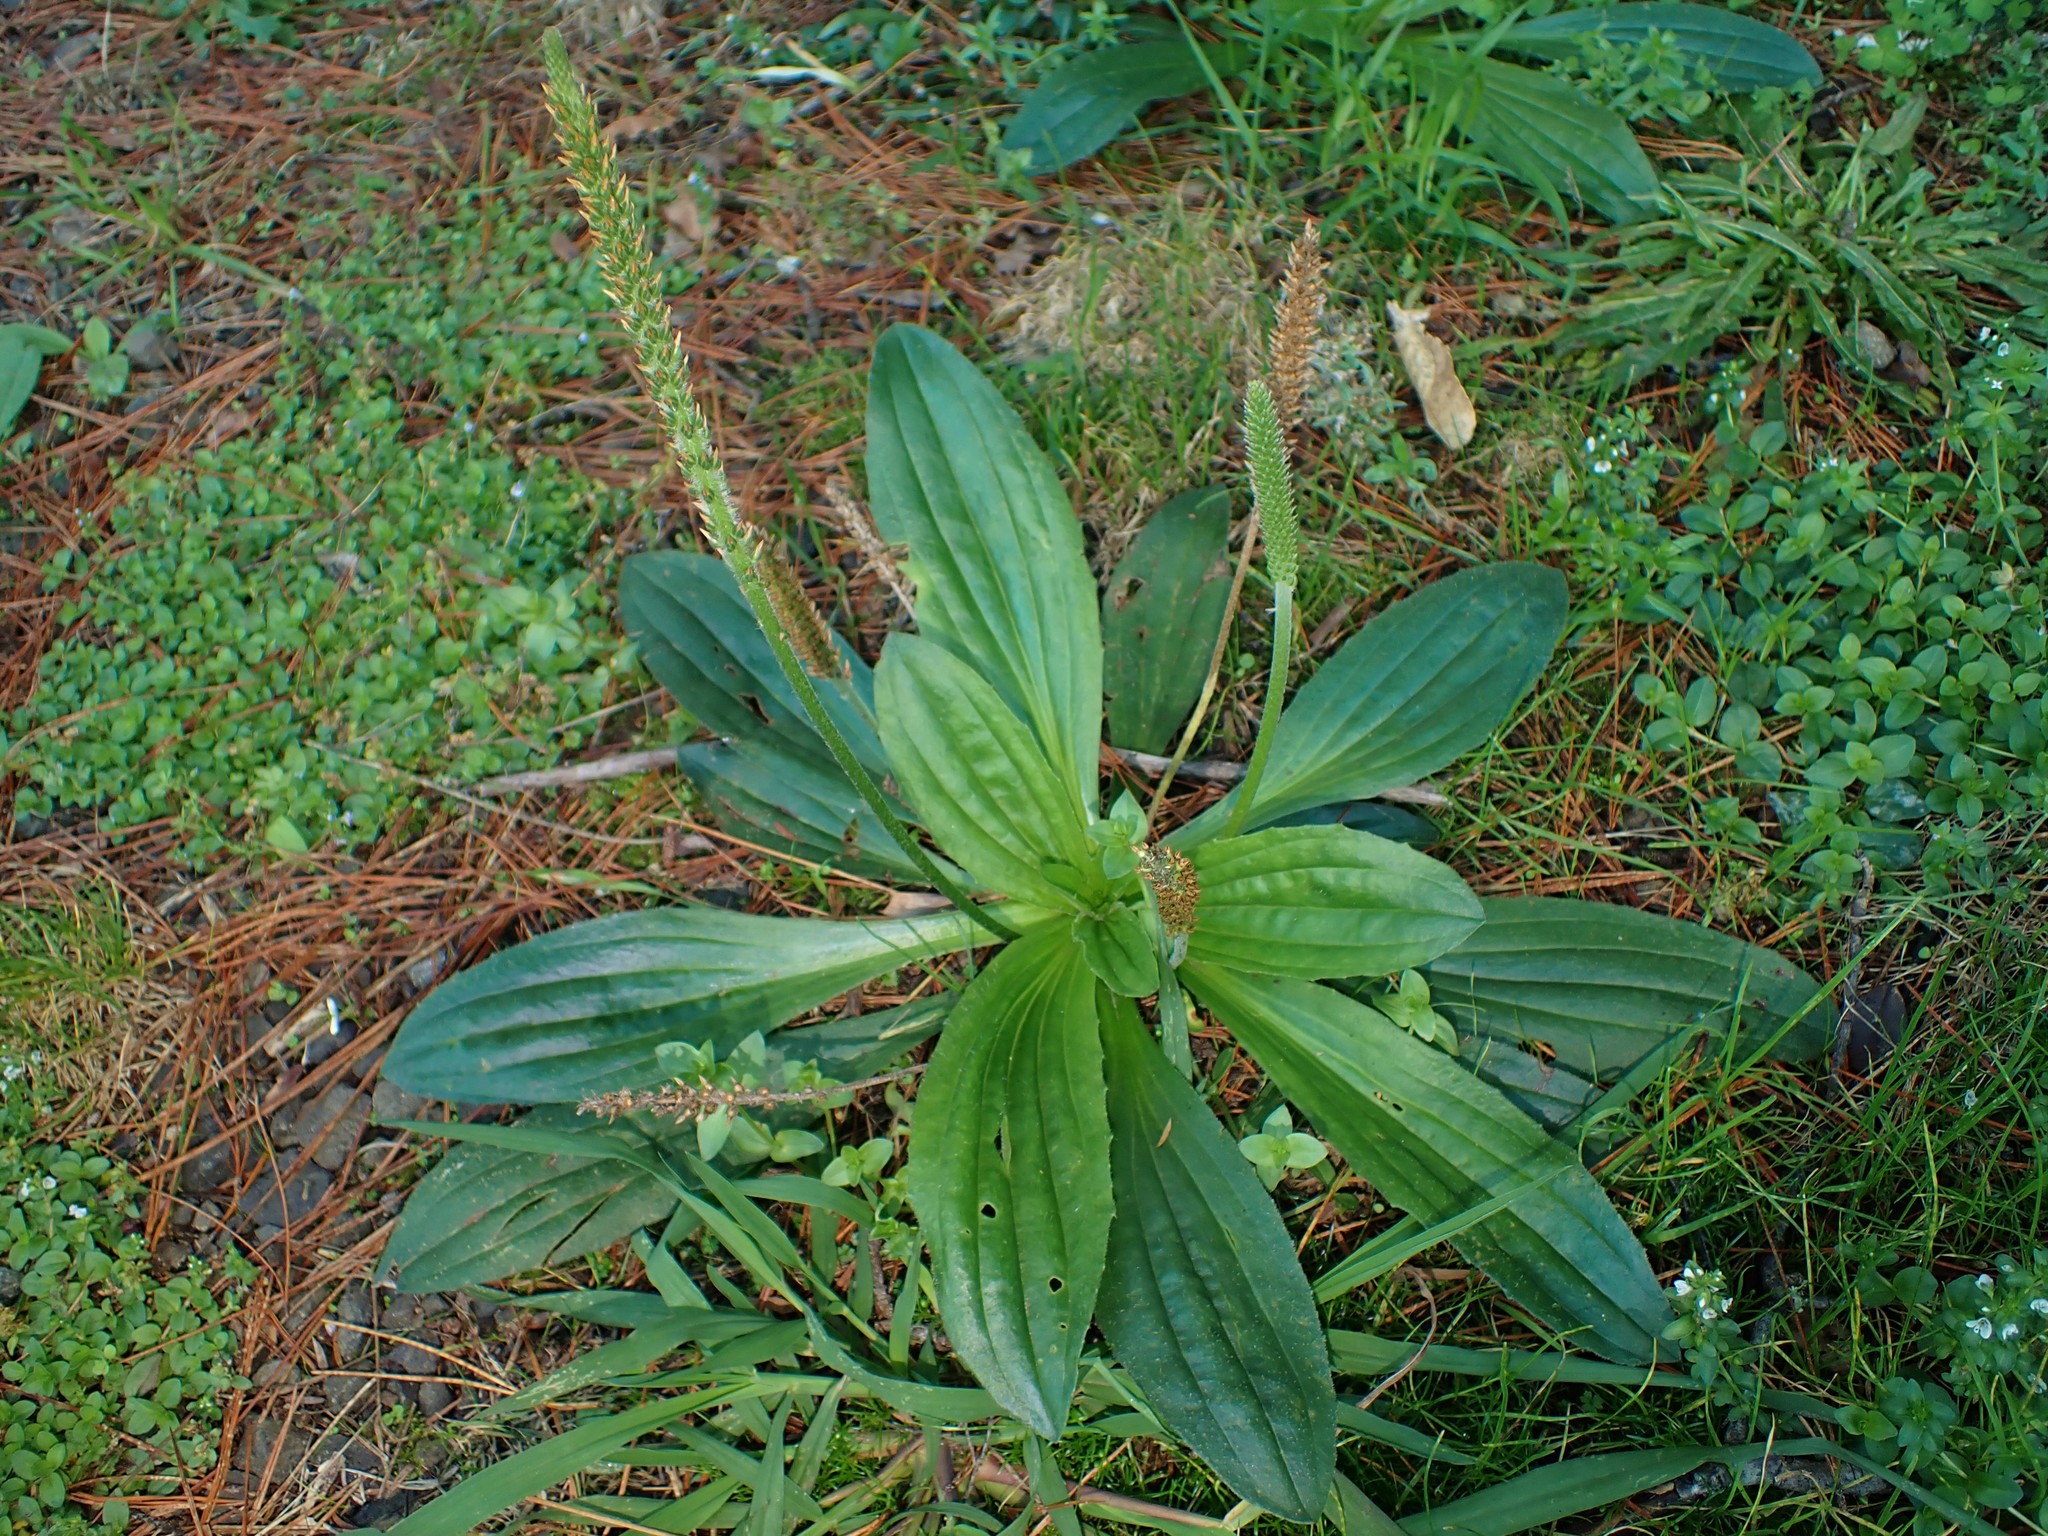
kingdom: Plantae
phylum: Tracheophyta
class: Magnoliopsida
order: Lamiales
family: Plantaginaceae
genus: Plantago
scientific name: Plantago australis
